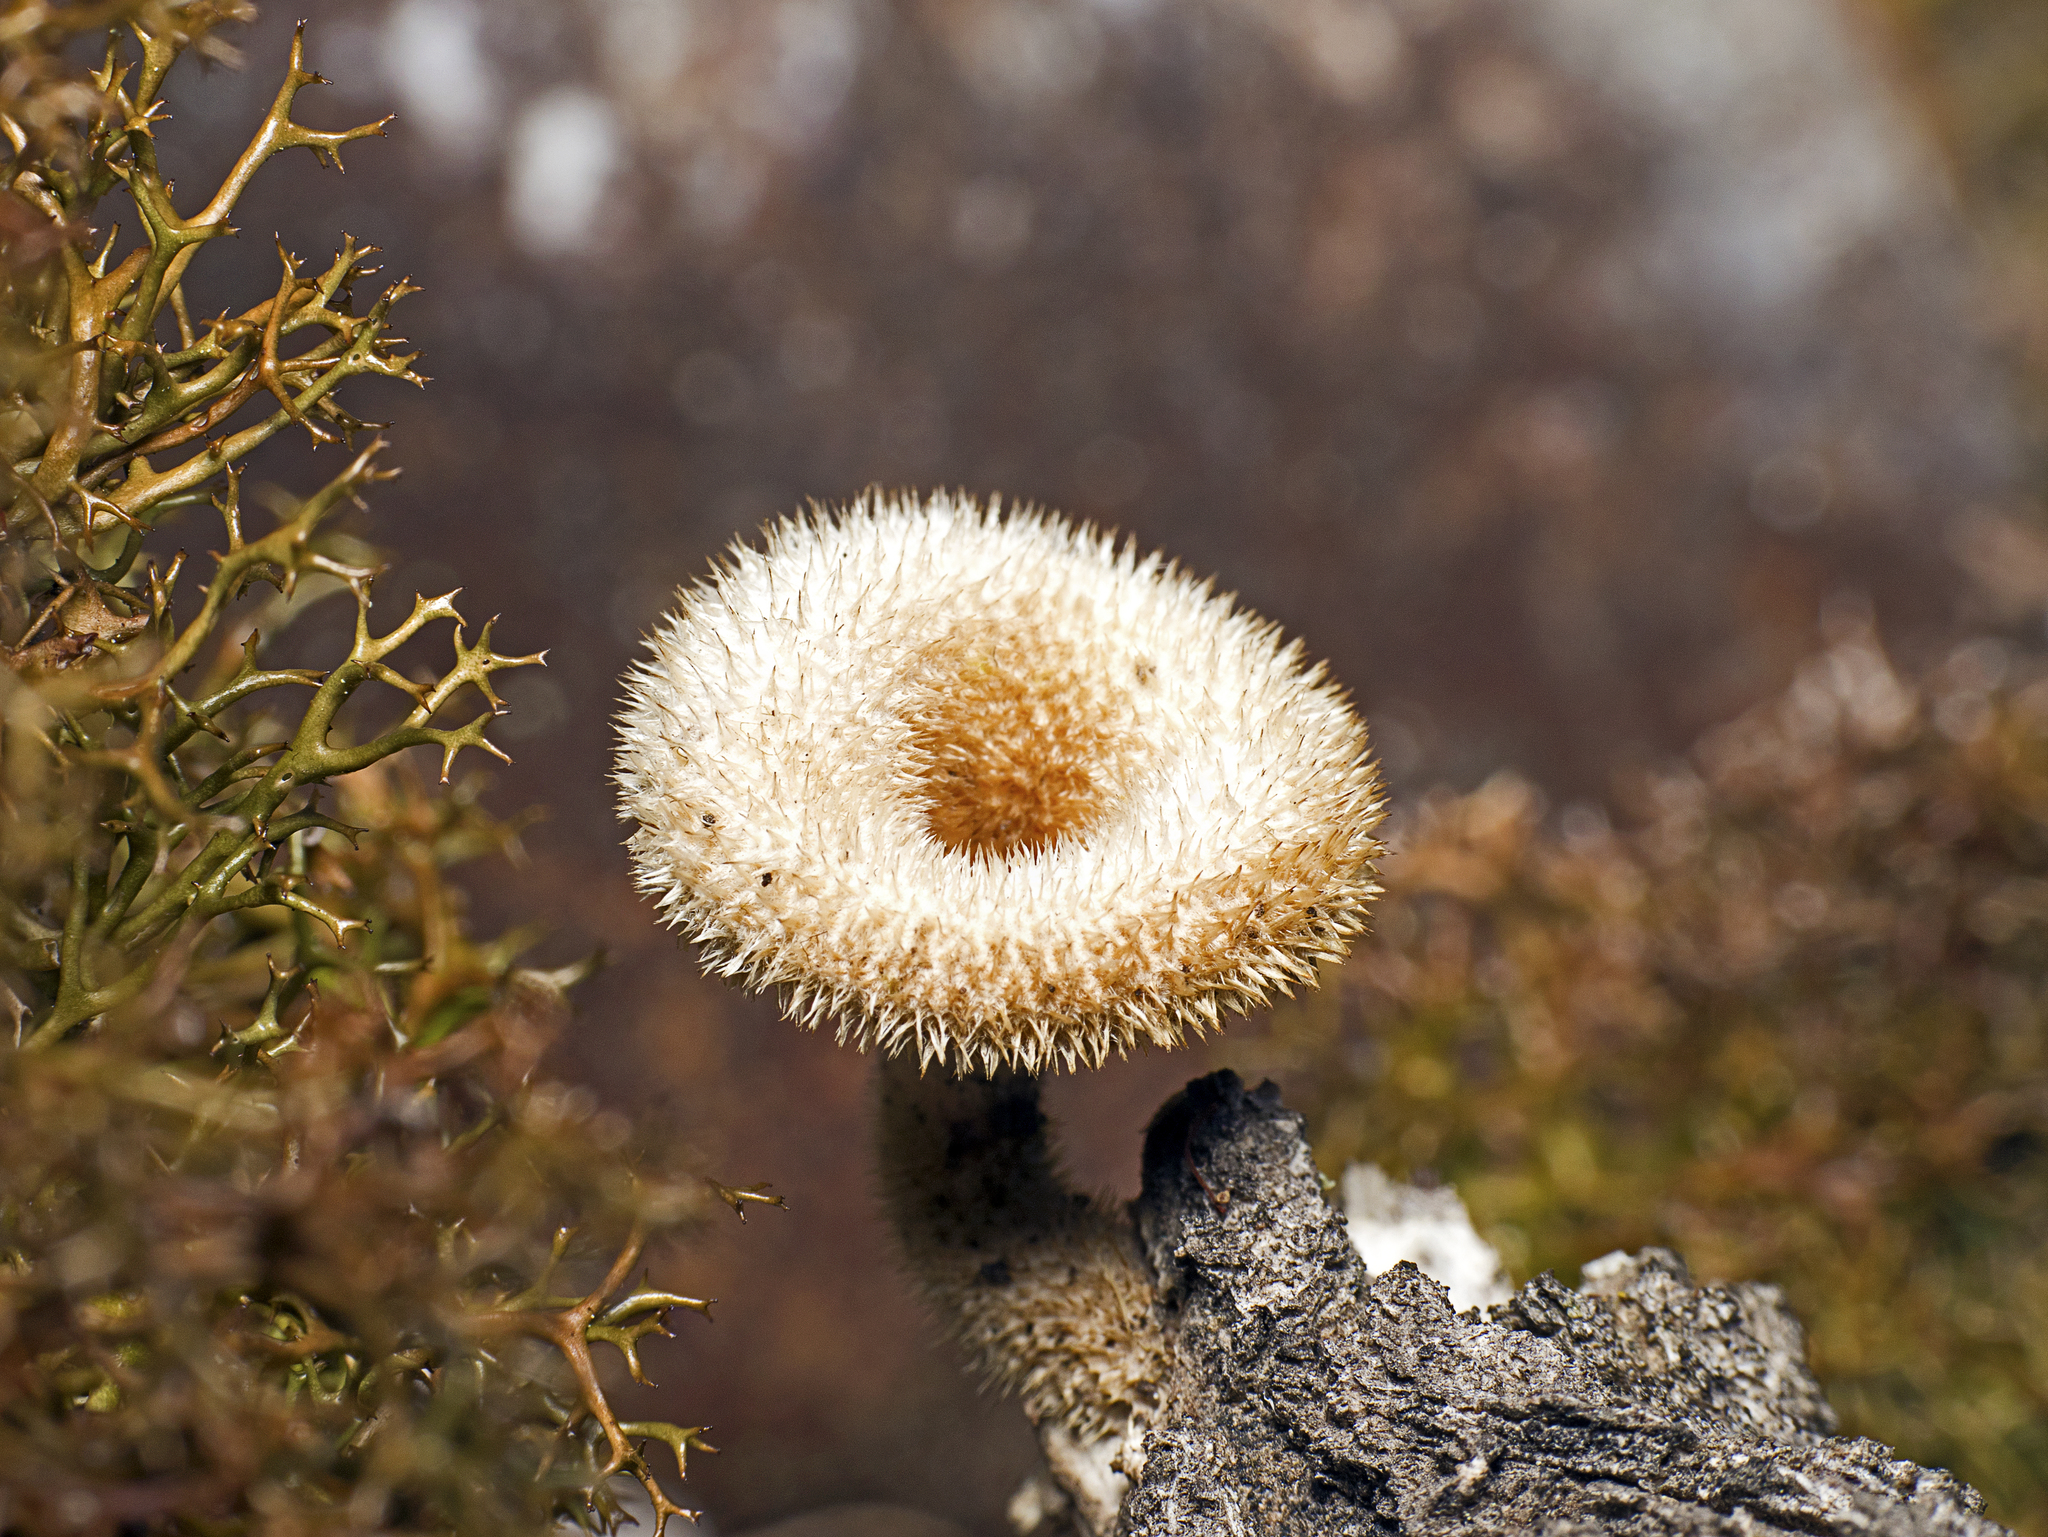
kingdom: Fungi
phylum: Basidiomycota
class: Agaricomycetes
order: Polyporales
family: Polyporaceae
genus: Lentinus
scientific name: Lentinus fasciatus
